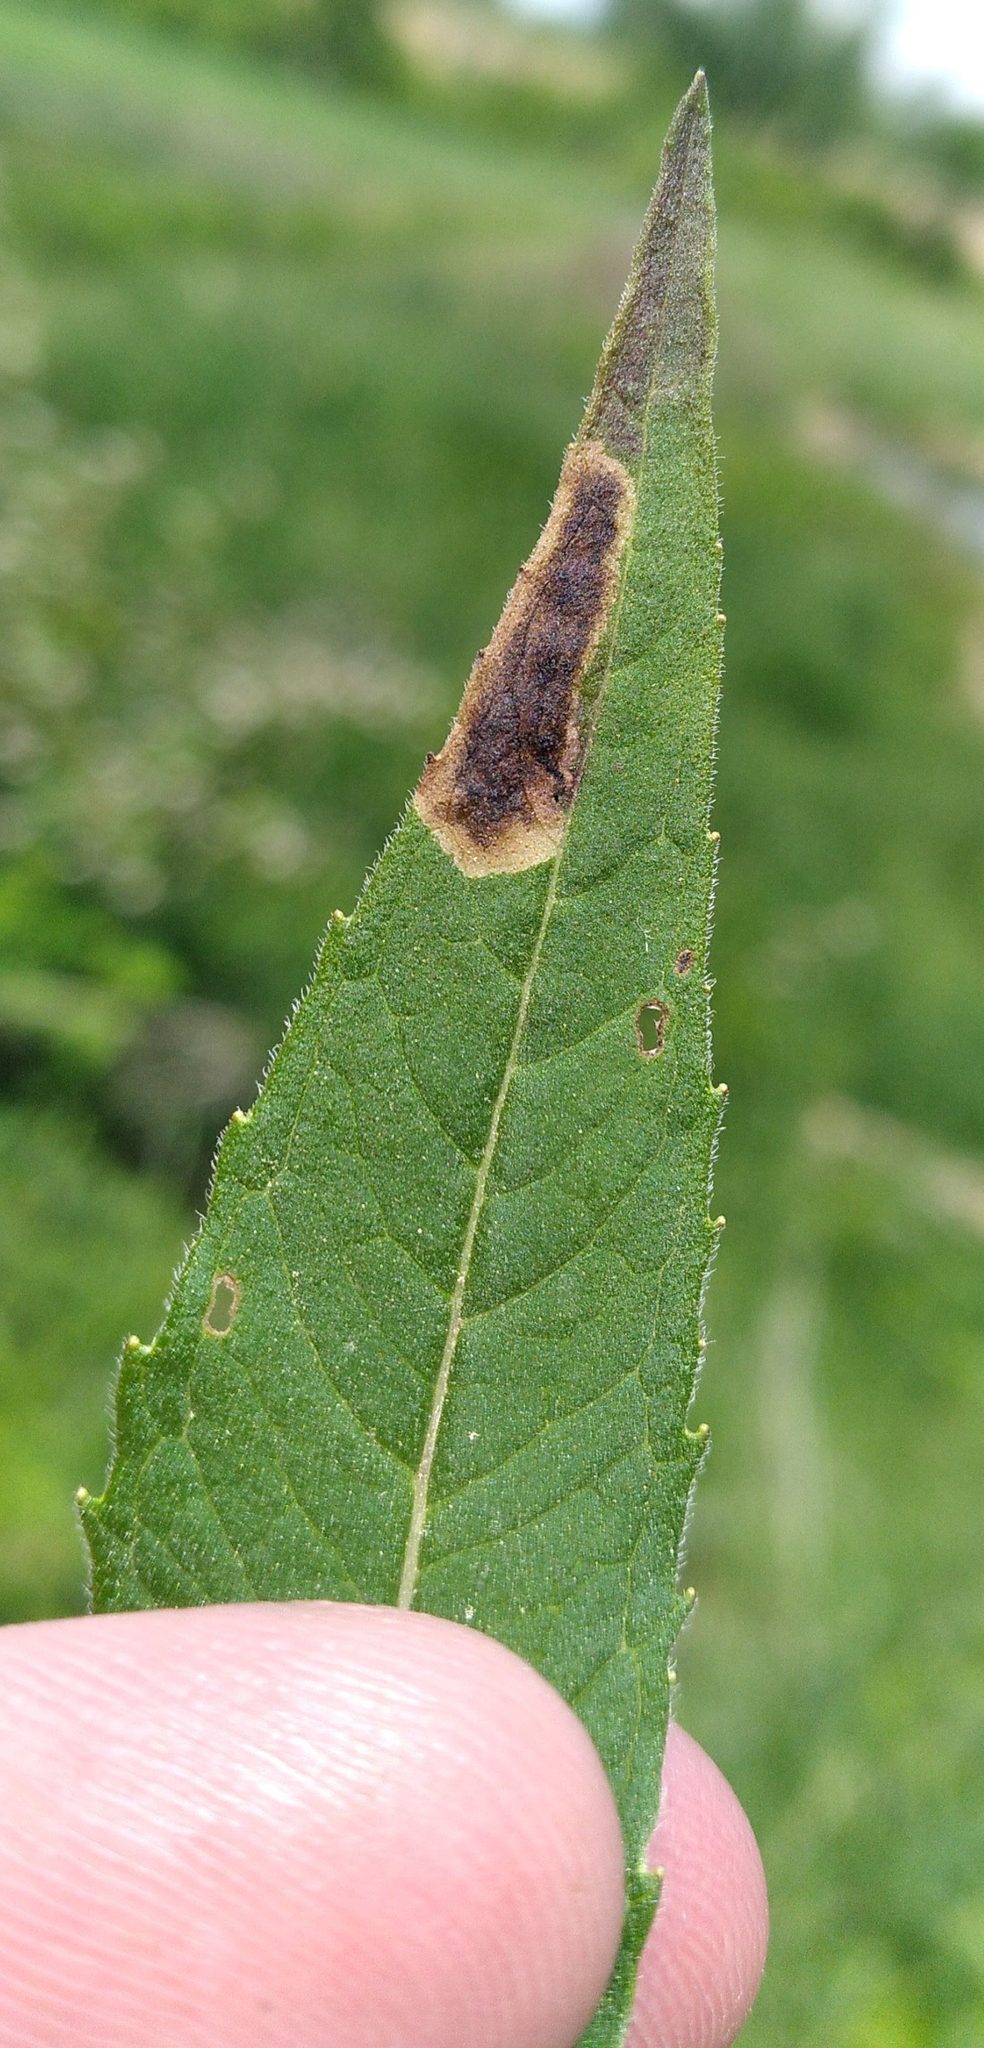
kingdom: Animalia
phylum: Arthropoda
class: Insecta
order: Diptera
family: Agromyzidae
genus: Calycomyza
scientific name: Calycomyza menthae
